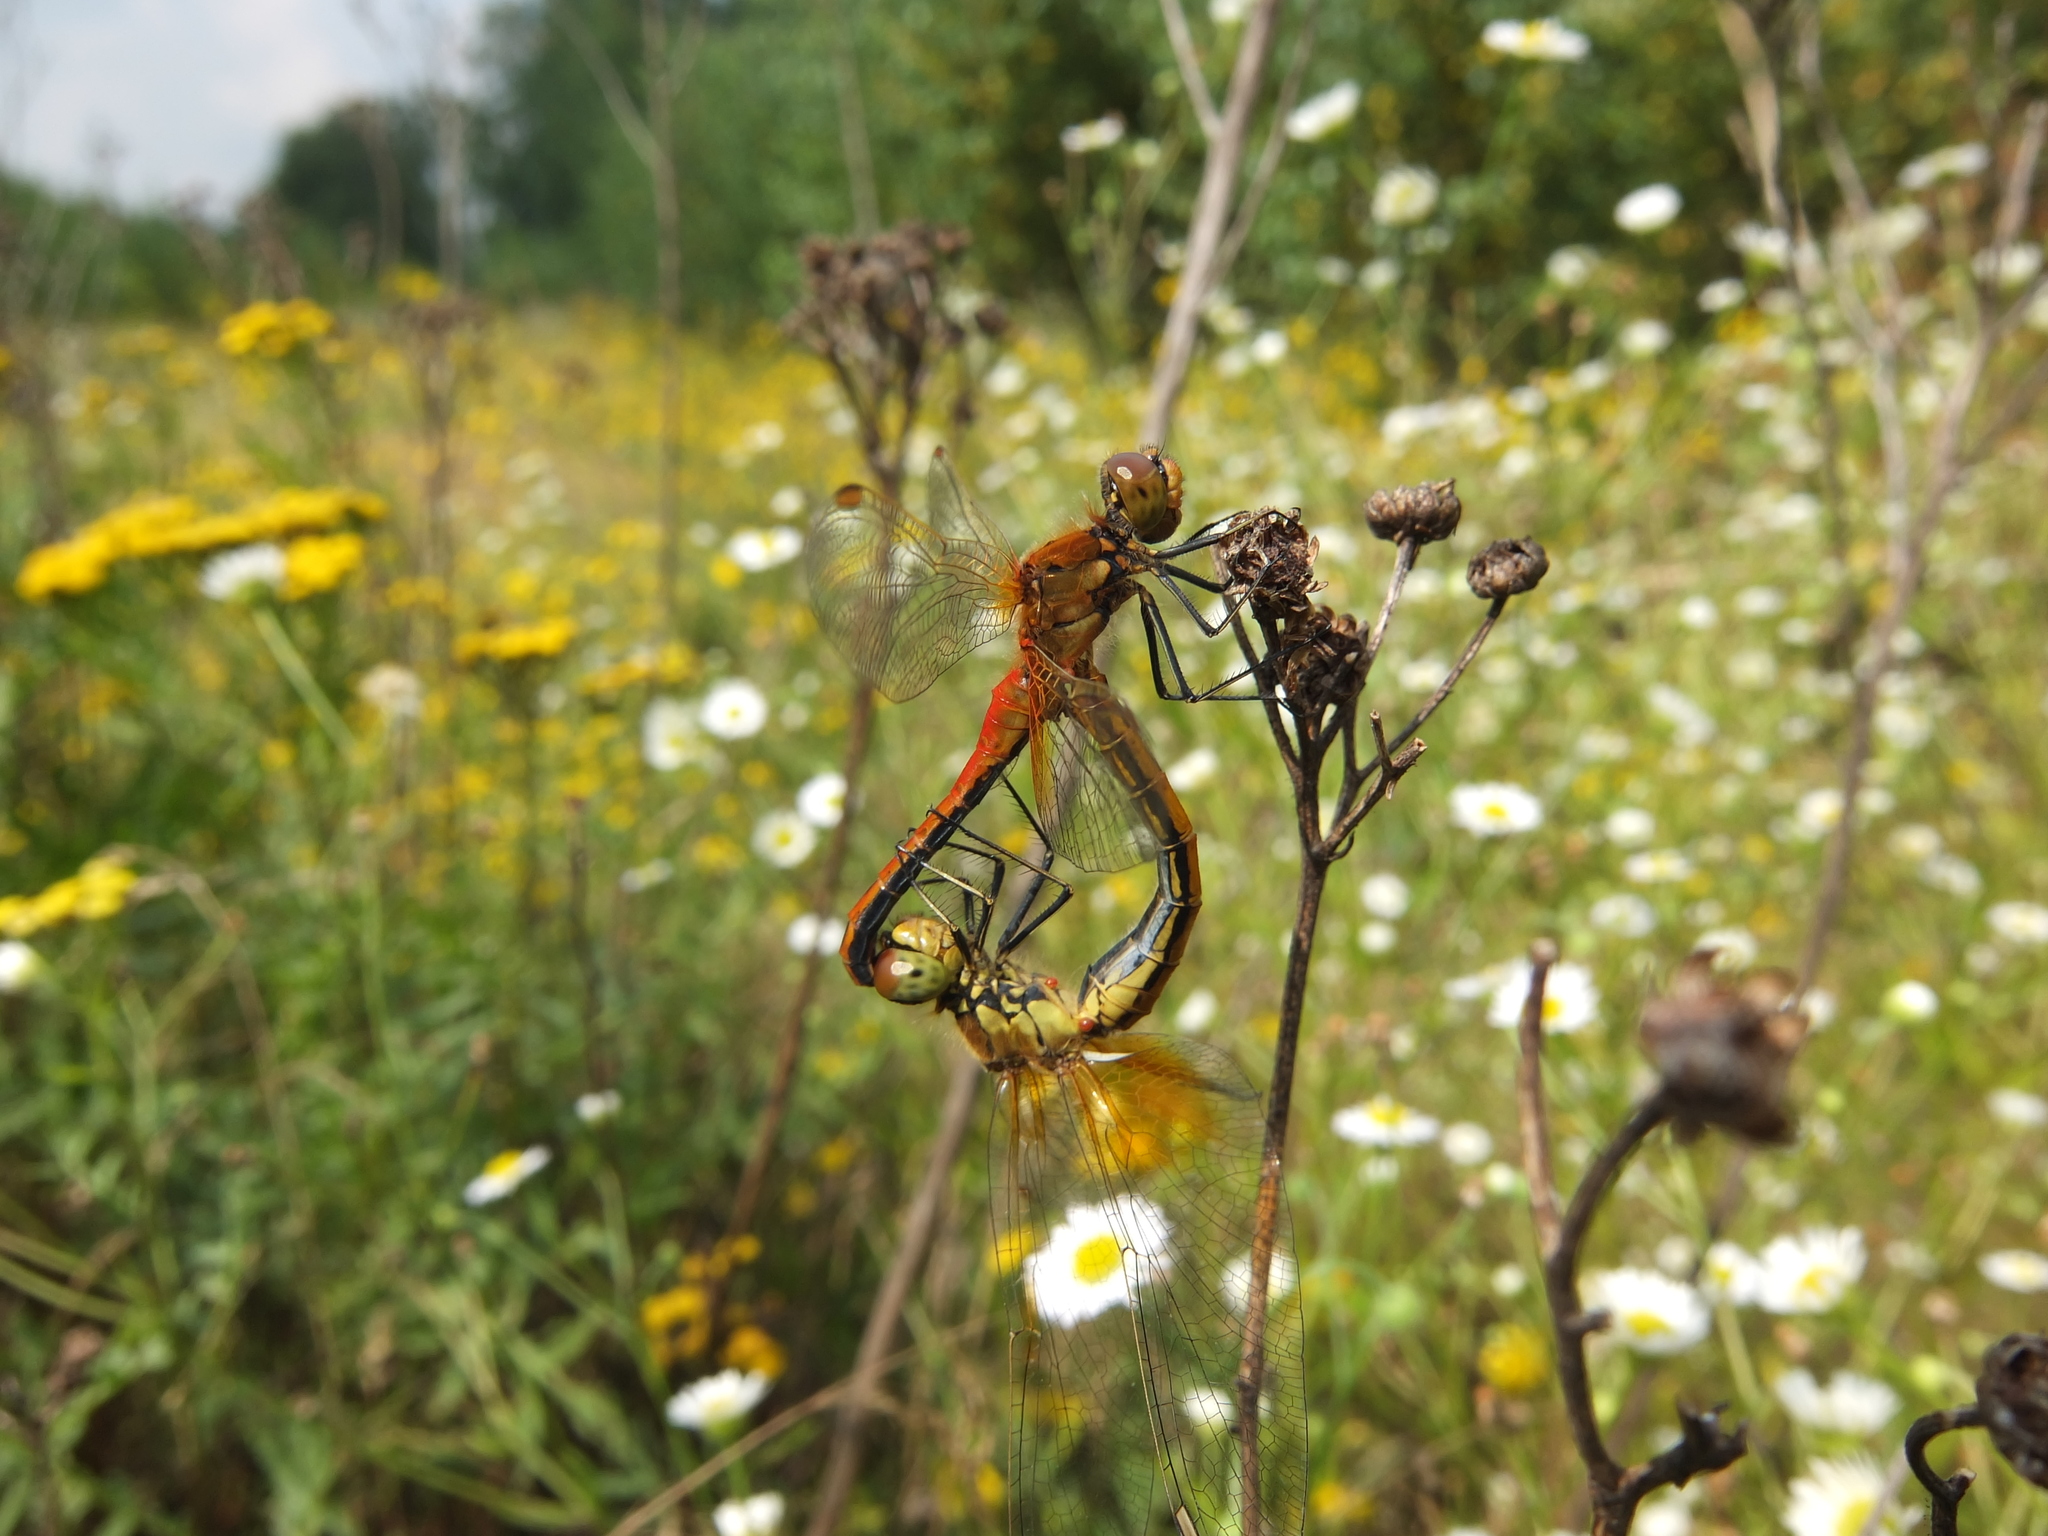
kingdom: Animalia
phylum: Arthropoda
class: Insecta
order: Odonata
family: Libellulidae
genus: Sympetrum
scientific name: Sympetrum flaveolum
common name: Yellow-winged darter
